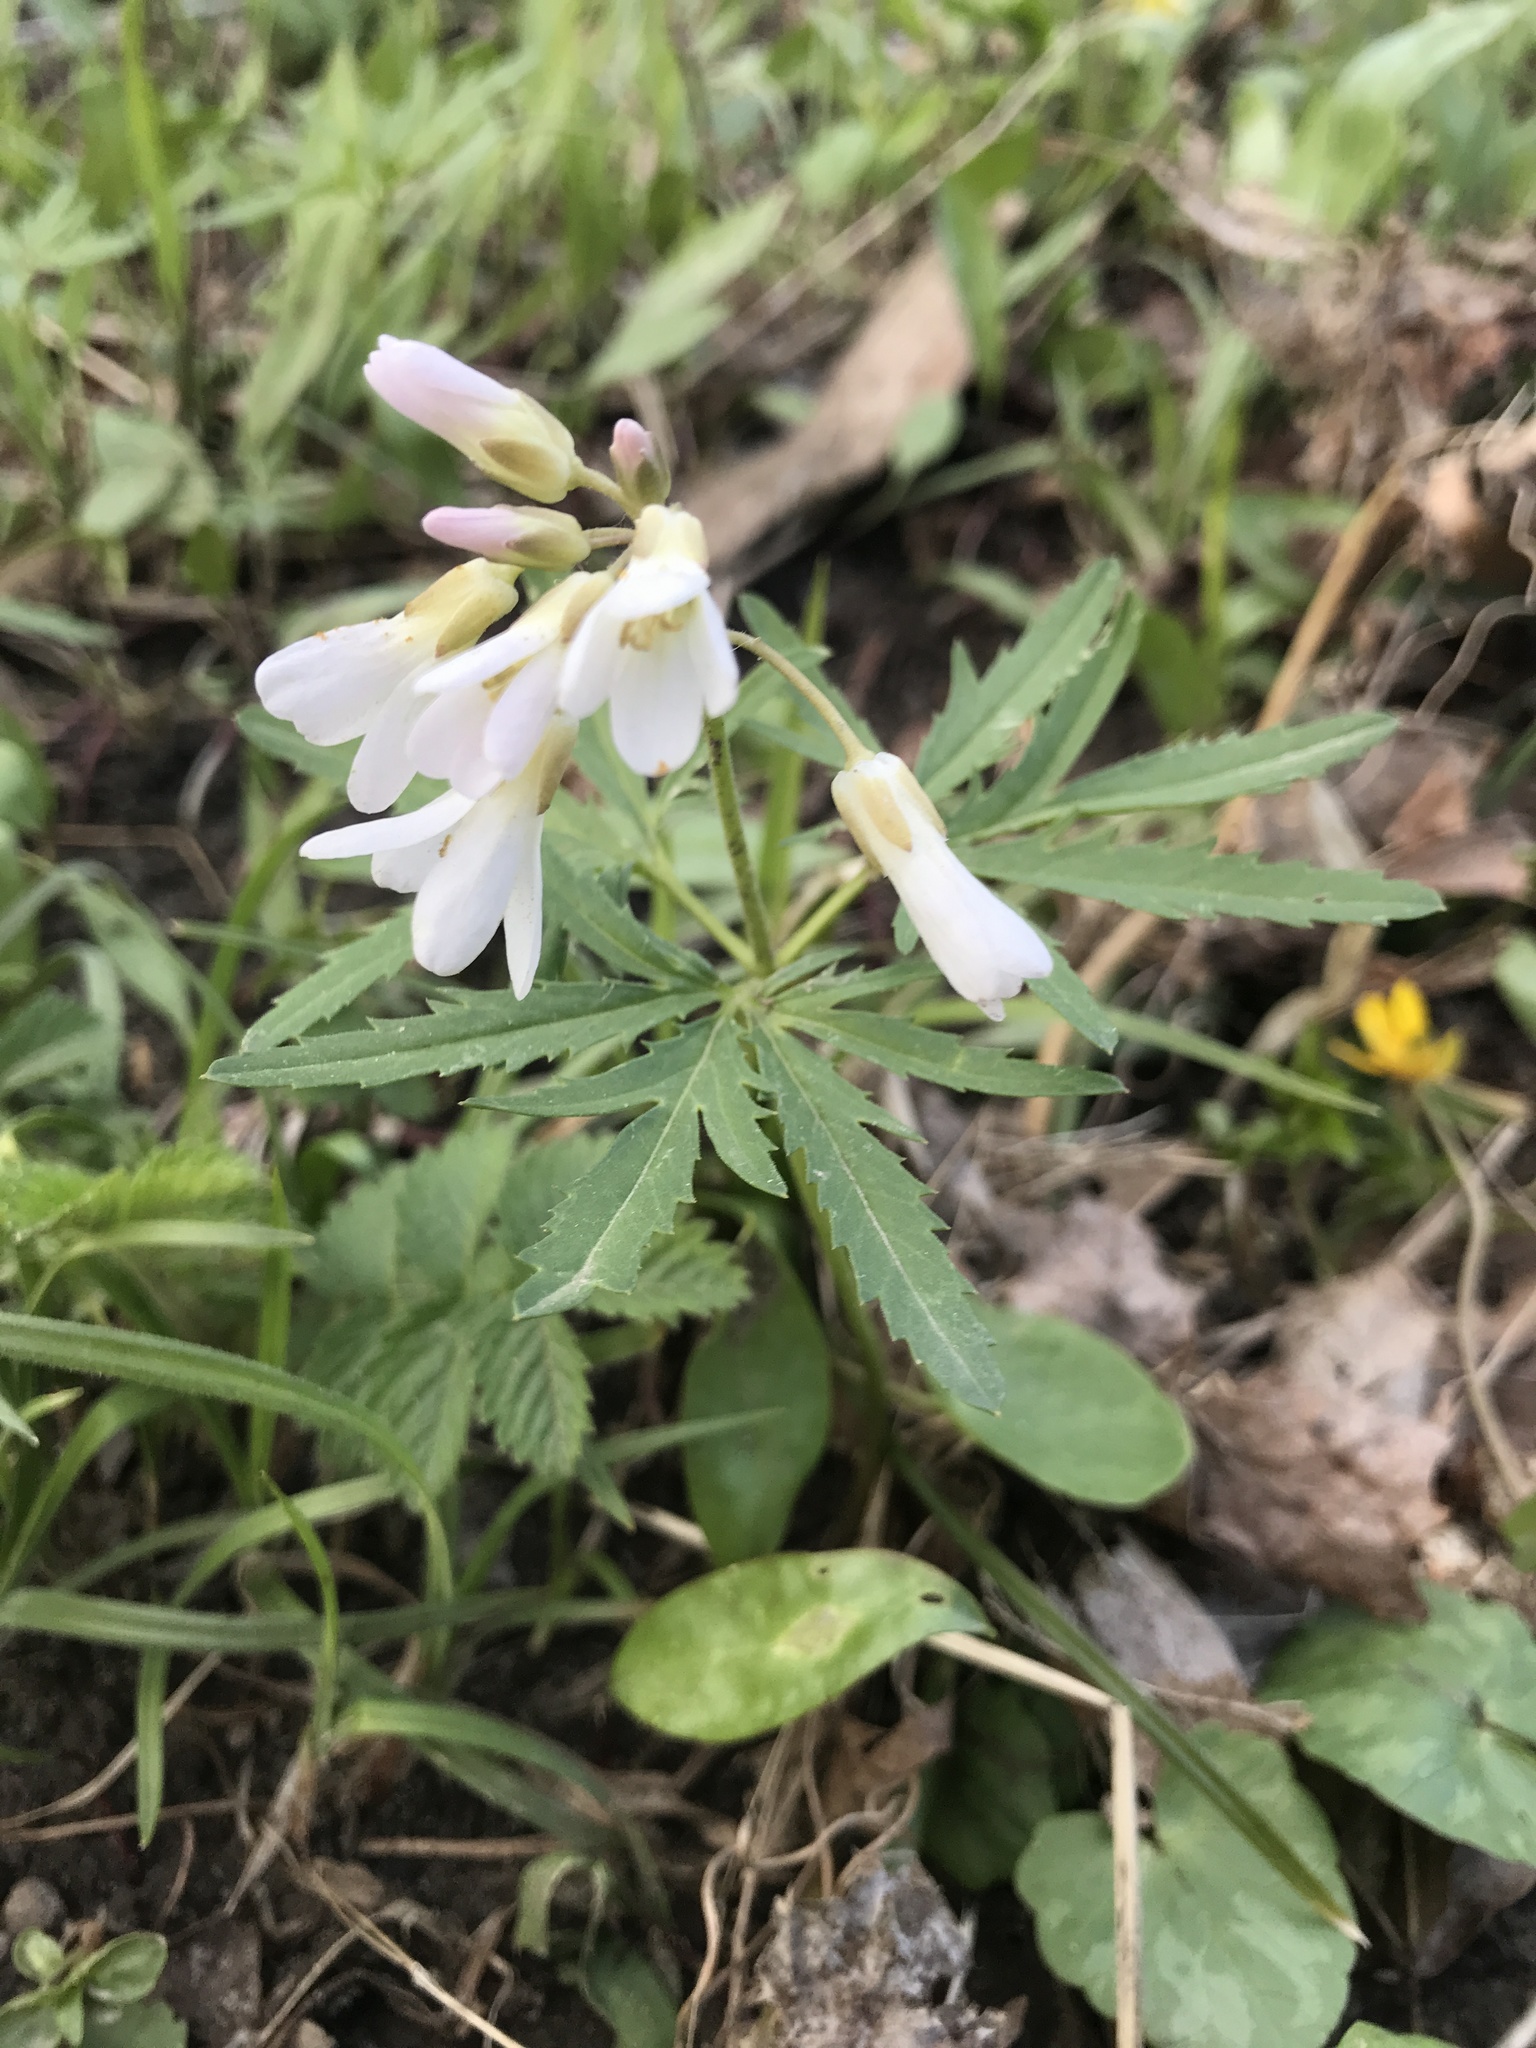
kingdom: Plantae
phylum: Tracheophyta
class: Magnoliopsida
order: Brassicales
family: Brassicaceae
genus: Cardamine
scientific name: Cardamine concatenata
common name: Cut-leaf toothcup
